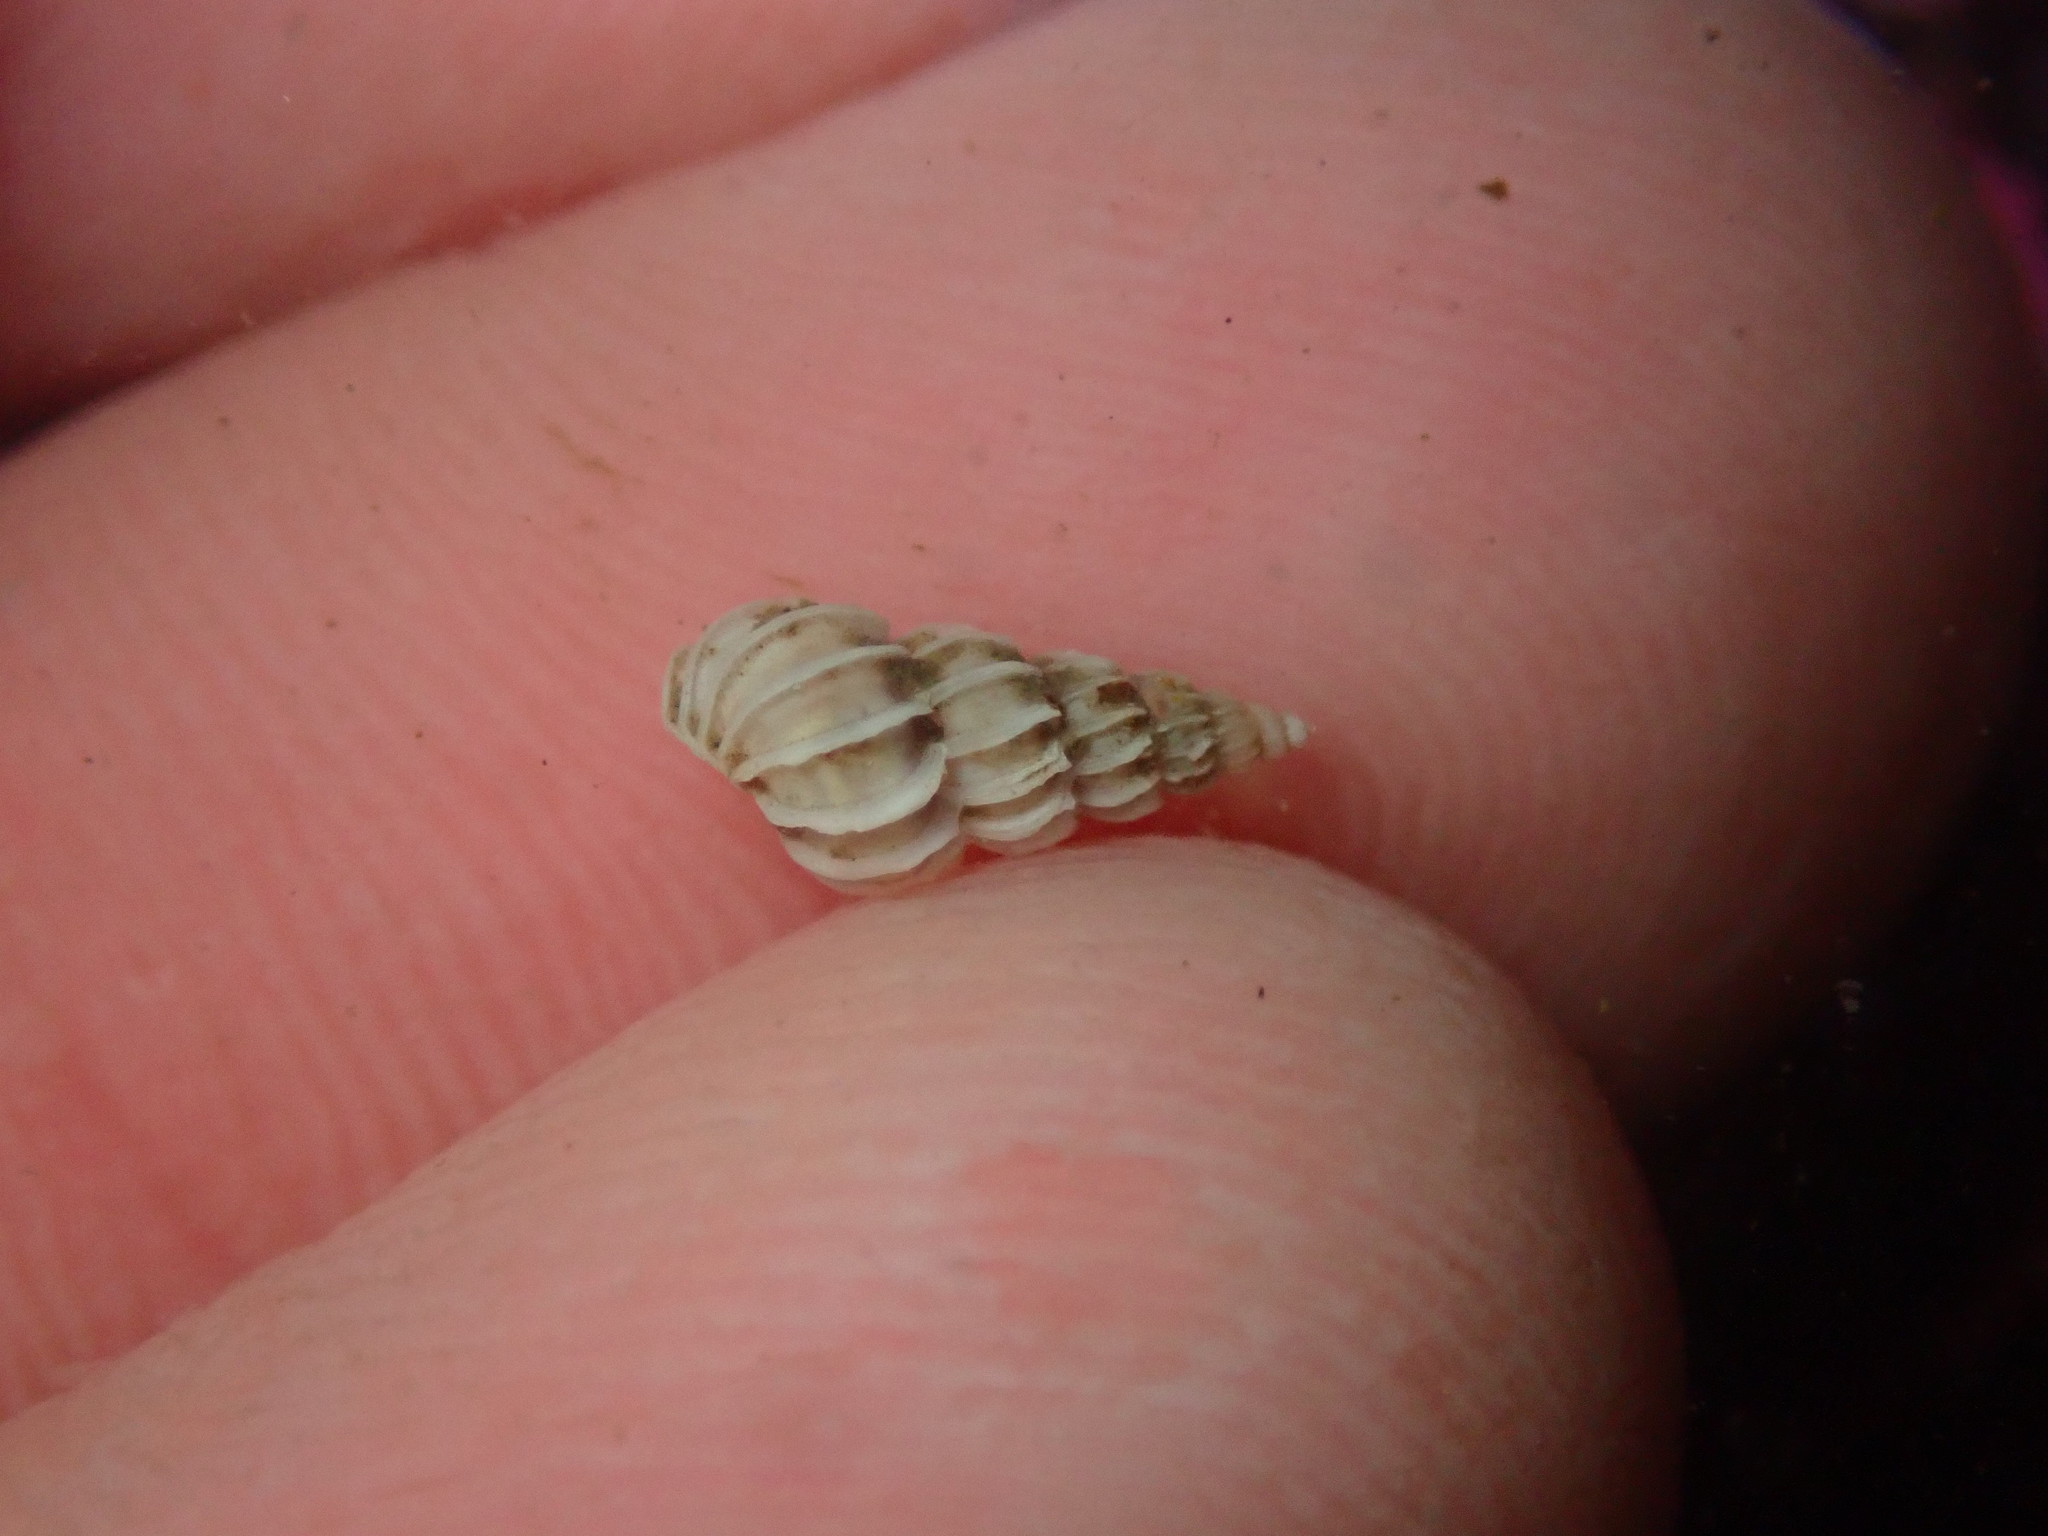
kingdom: Animalia
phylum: Mollusca
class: Gastropoda
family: Epitoniidae
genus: Epitonium
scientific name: Epitonium tinctum
